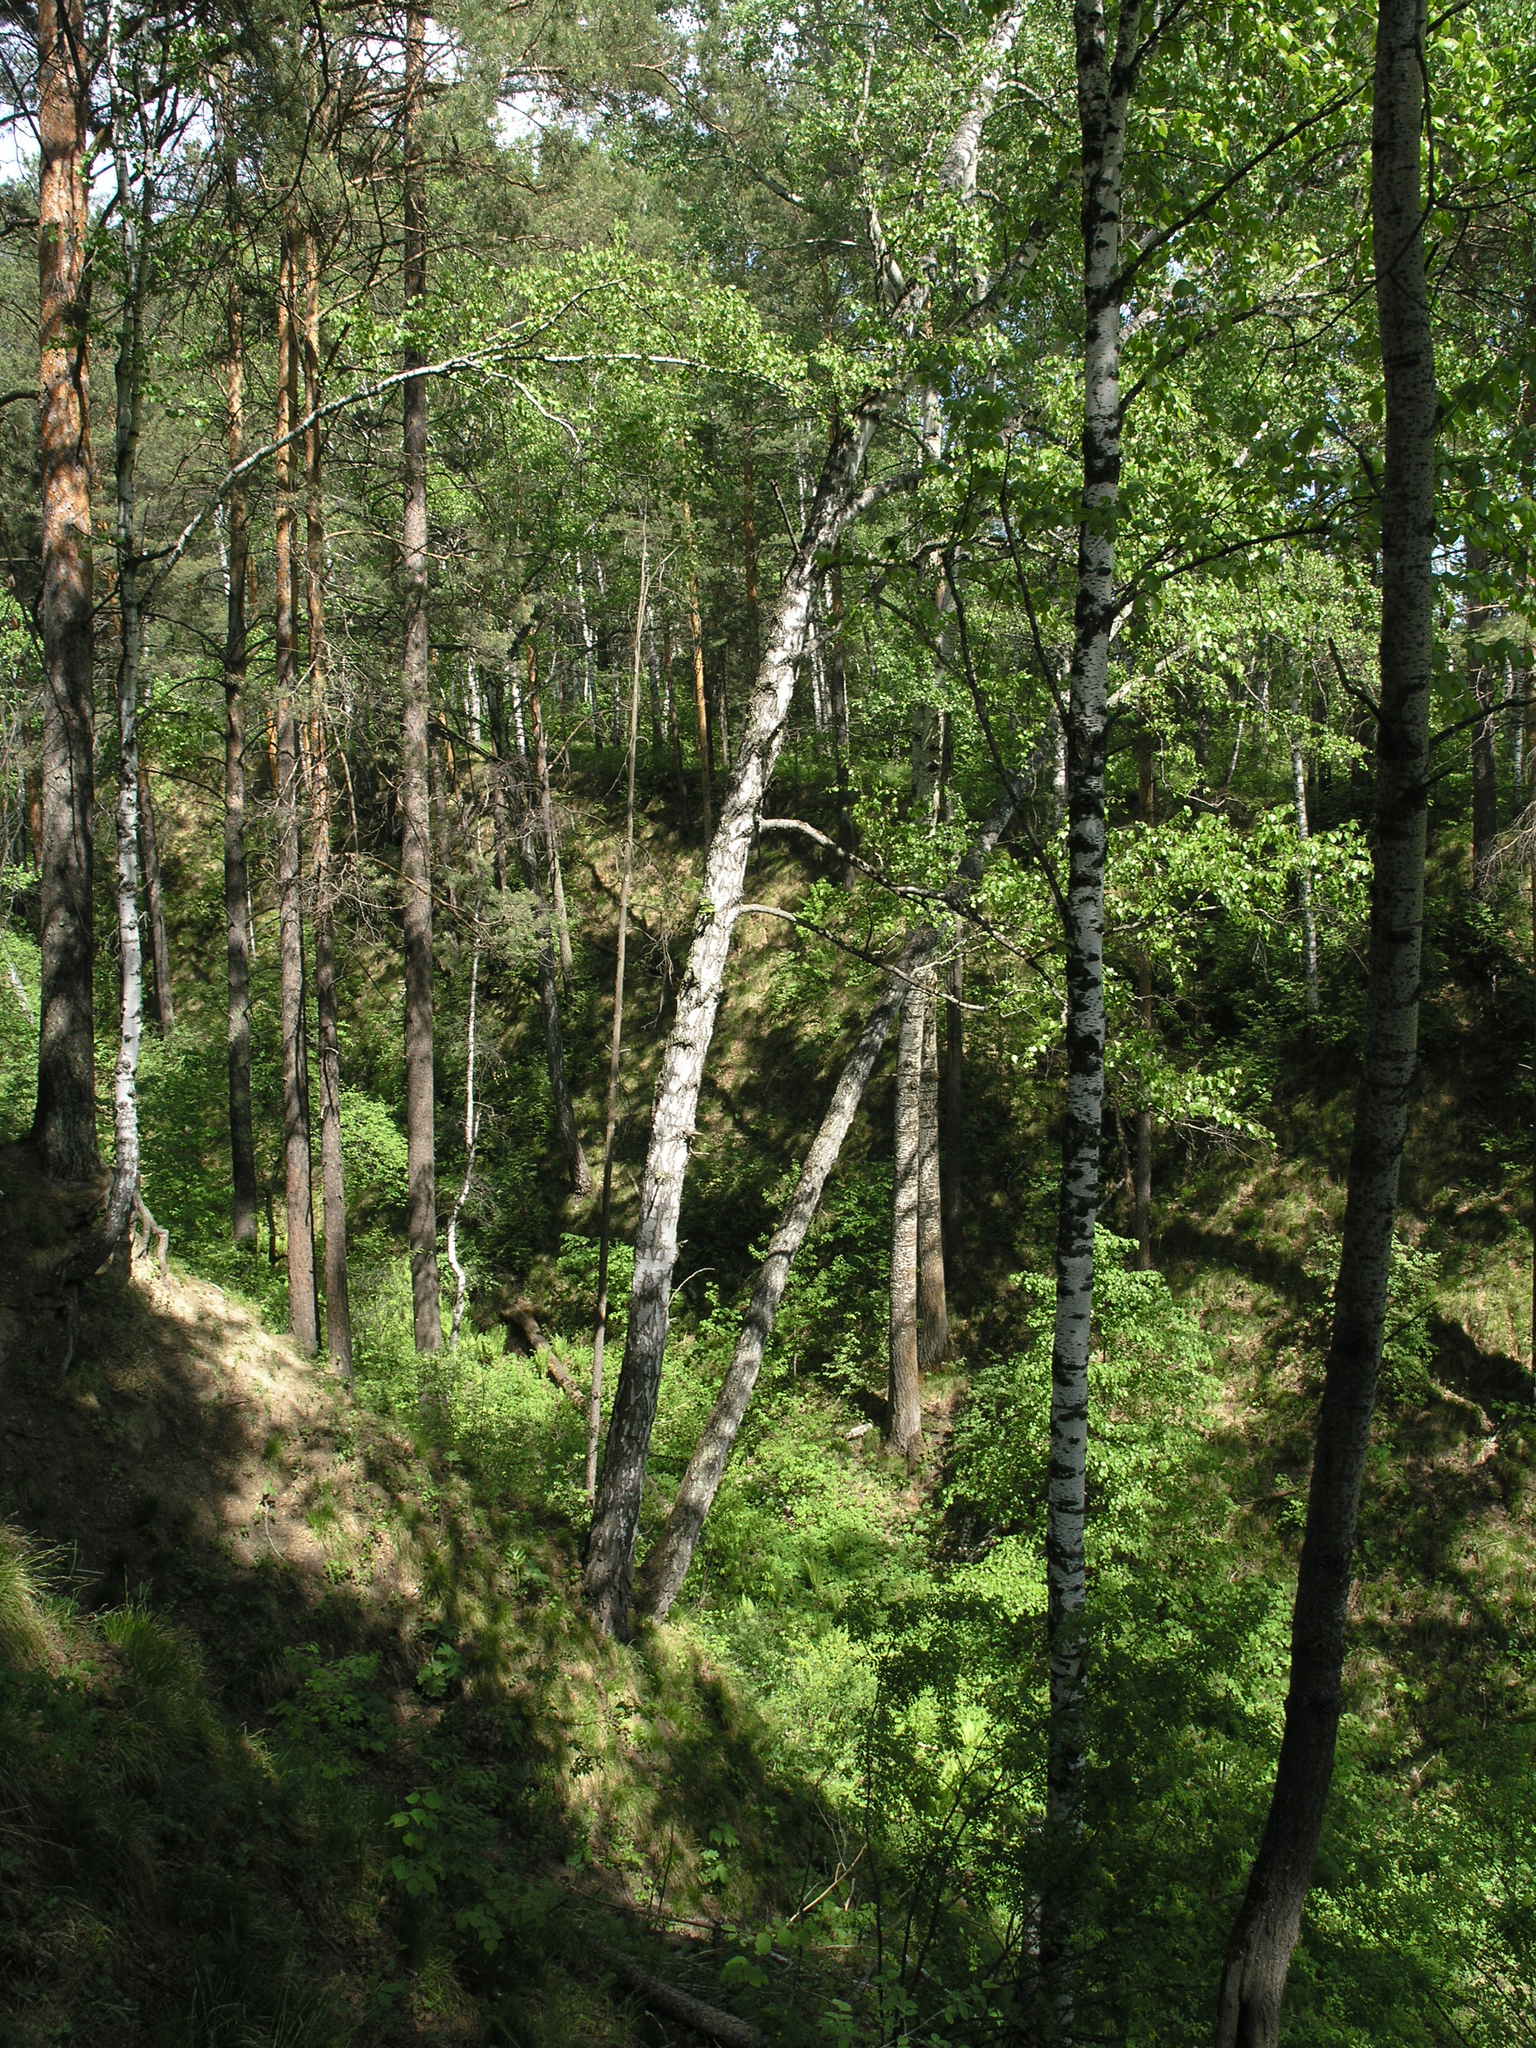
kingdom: Plantae
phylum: Tracheophyta
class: Magnoliopsida
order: Fagales
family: Betulaceae
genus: Betula
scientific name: Betula pendula
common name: Silver birch
